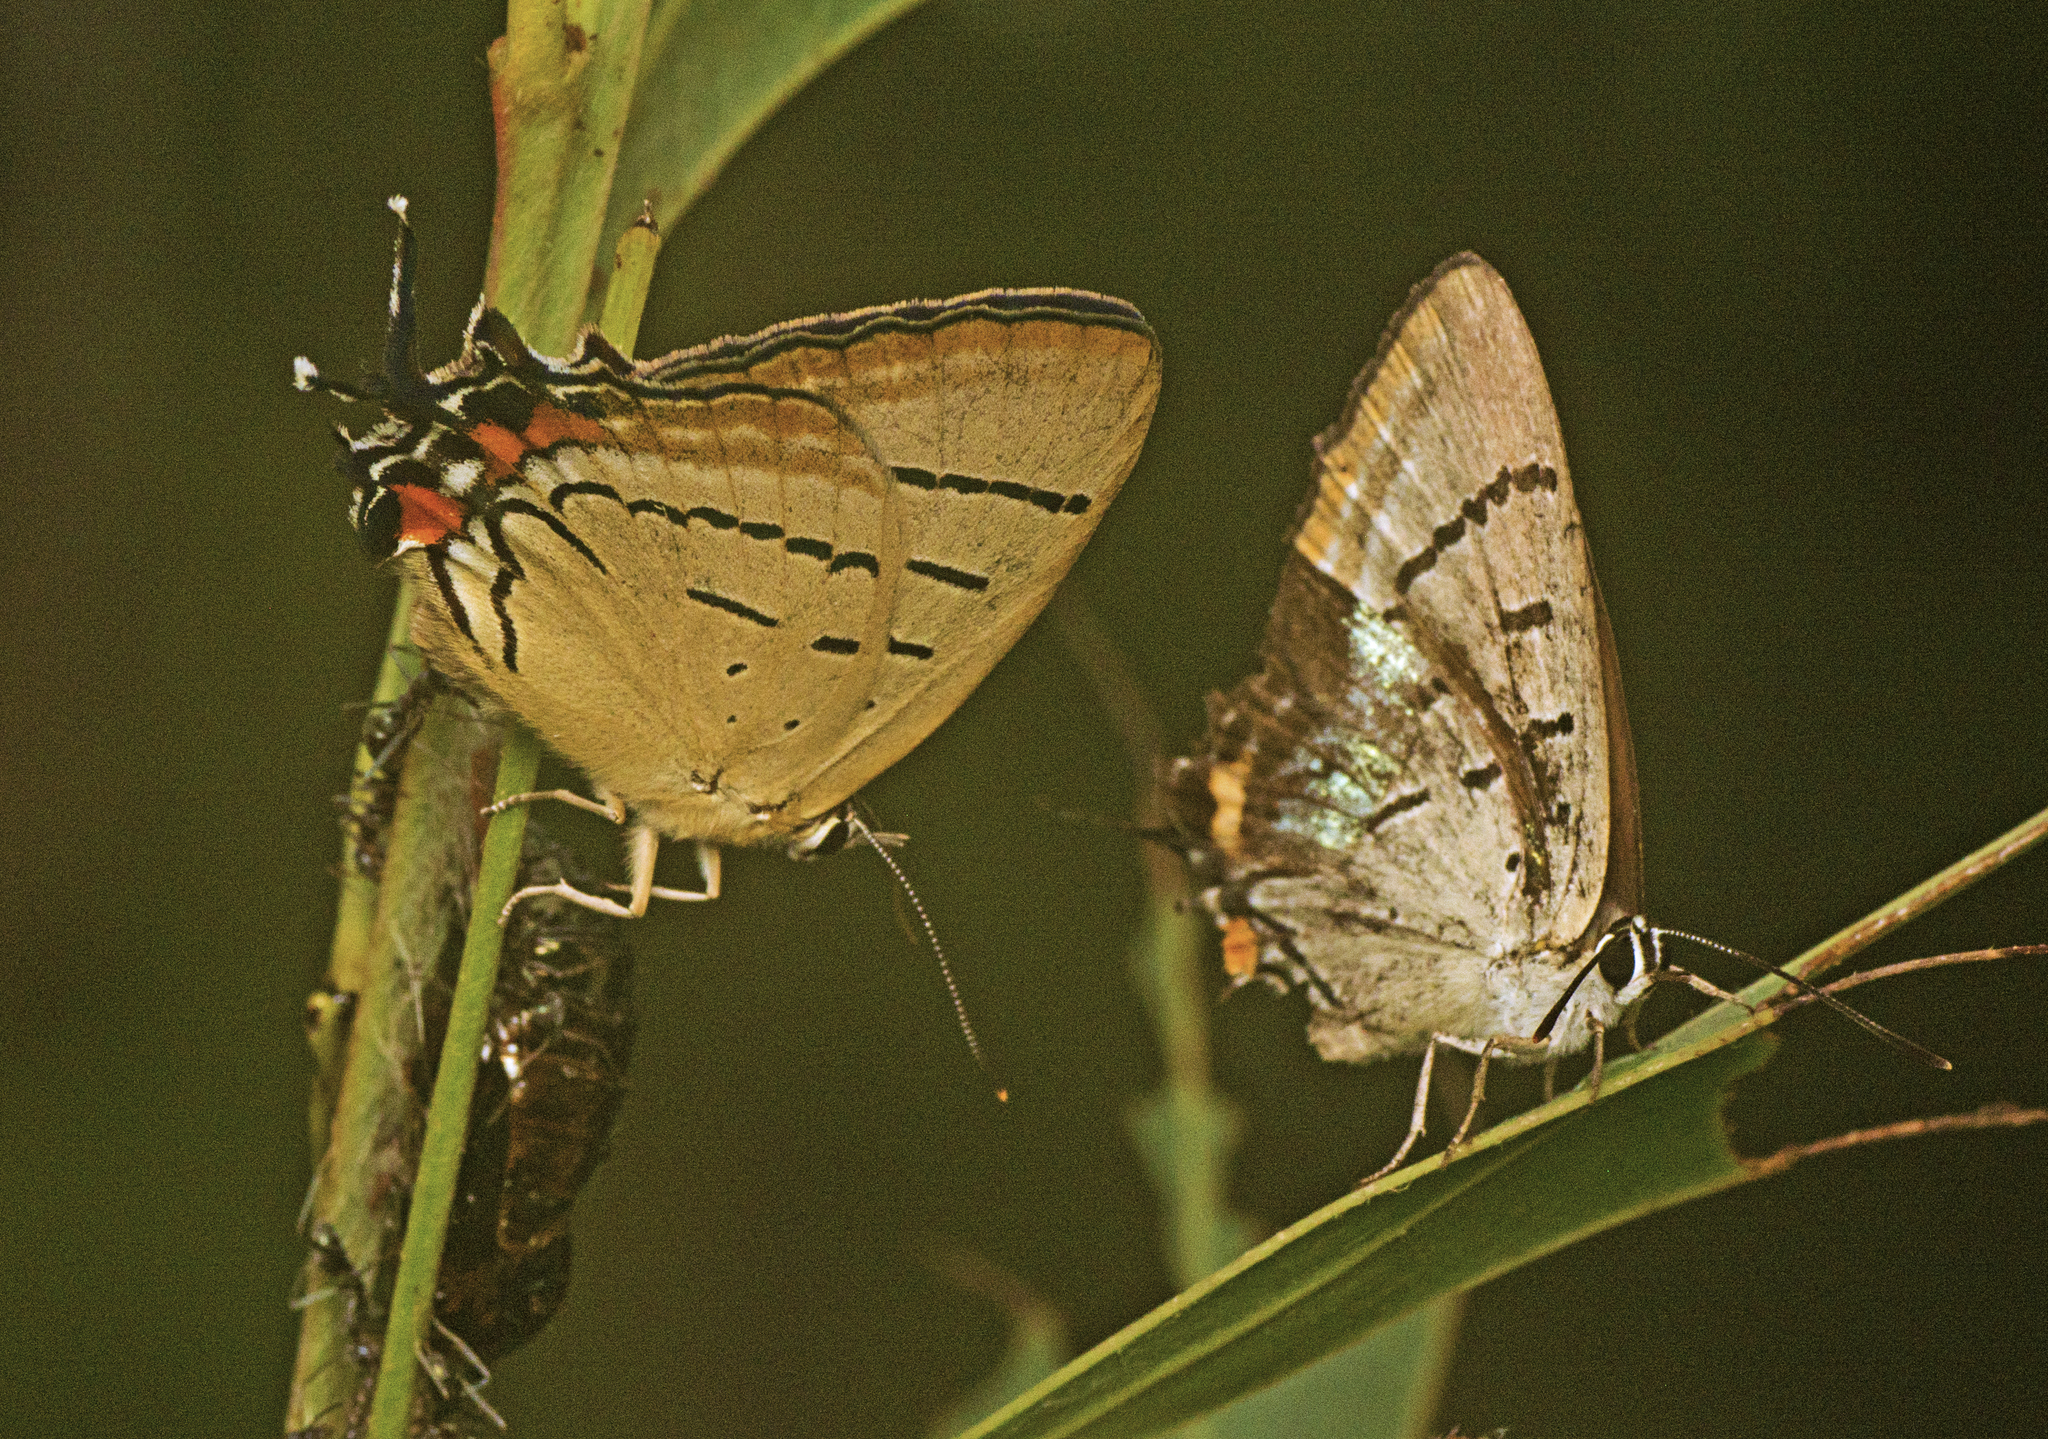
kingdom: Animalia
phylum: Arthropoda
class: Insecta
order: Lepidoptera
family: Lycaenidae
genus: Jalmenus
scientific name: Jalmenus evagoras
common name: Common imperial blue
